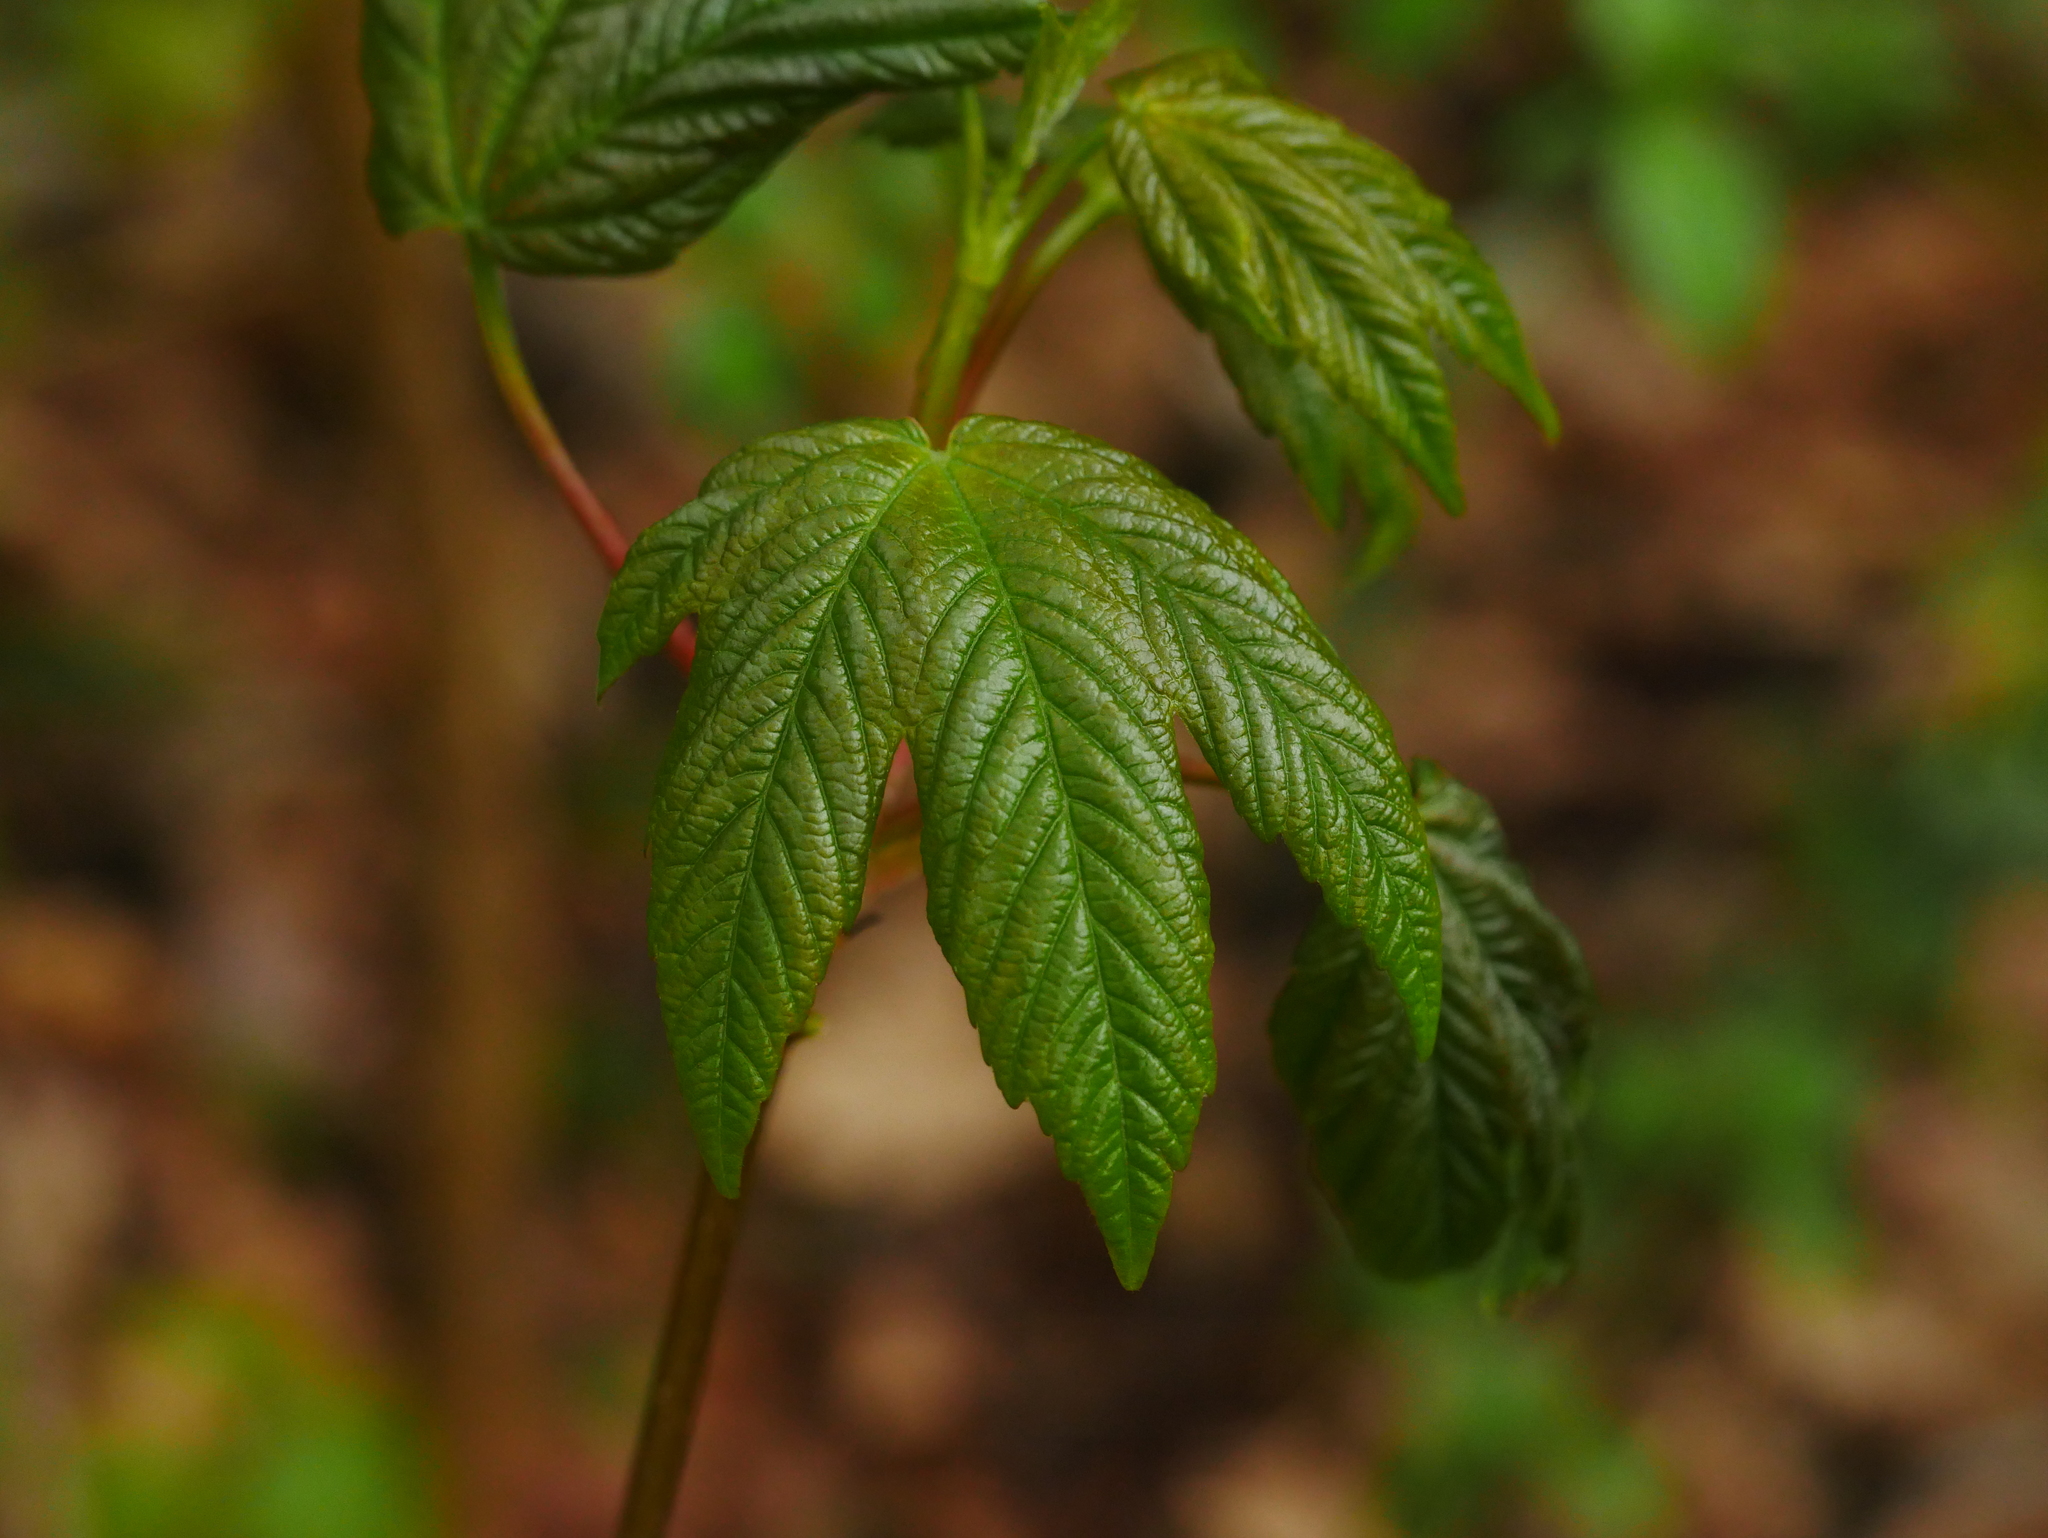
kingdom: Plantae
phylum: Tracheophyta
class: Magnoliopsida
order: Sapindales
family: Sapindaceae
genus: Acer
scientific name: Acer pseudoplatanus
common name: Sycamore
